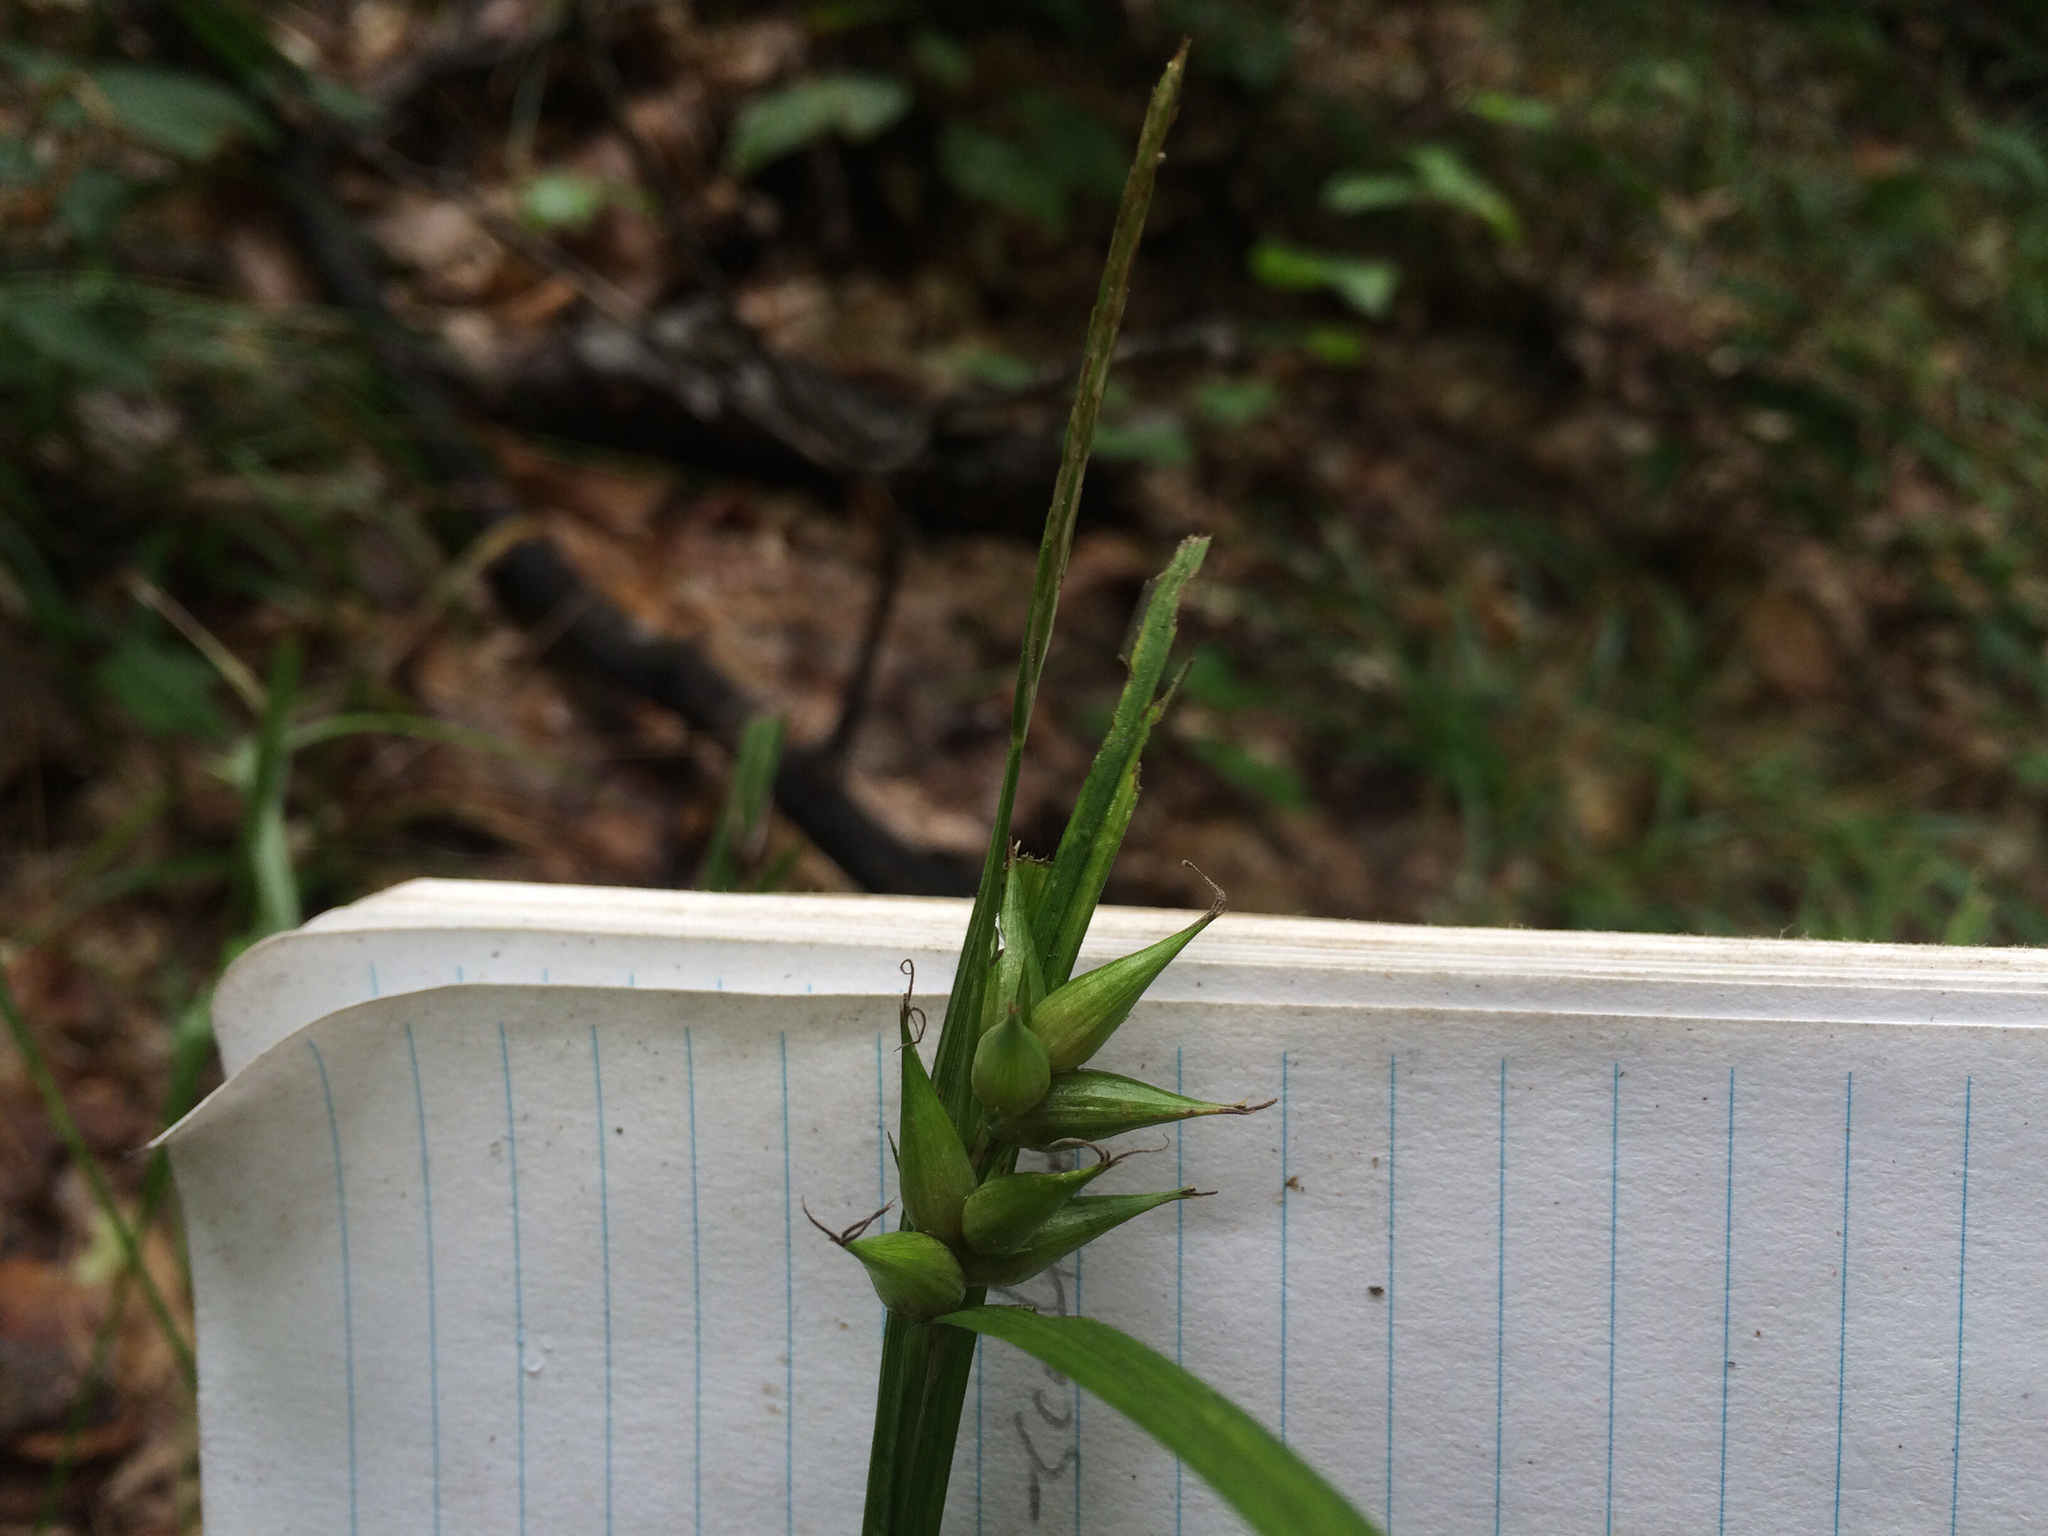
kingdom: Plantae
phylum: Tracheophyta
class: Liliopsida
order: Poales
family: Cyperaceae
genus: Carex
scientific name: Carex intumescens
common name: Greater bladder sedge
